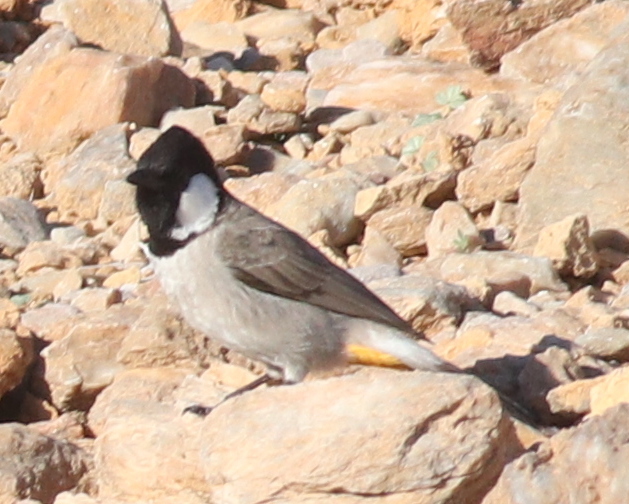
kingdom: Animalia
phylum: Chordata
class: Aves
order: Passeriformes
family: Pycnonotidae
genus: Pycnonotus
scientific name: Pycnonotus leucotis
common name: White-eared bulbul
